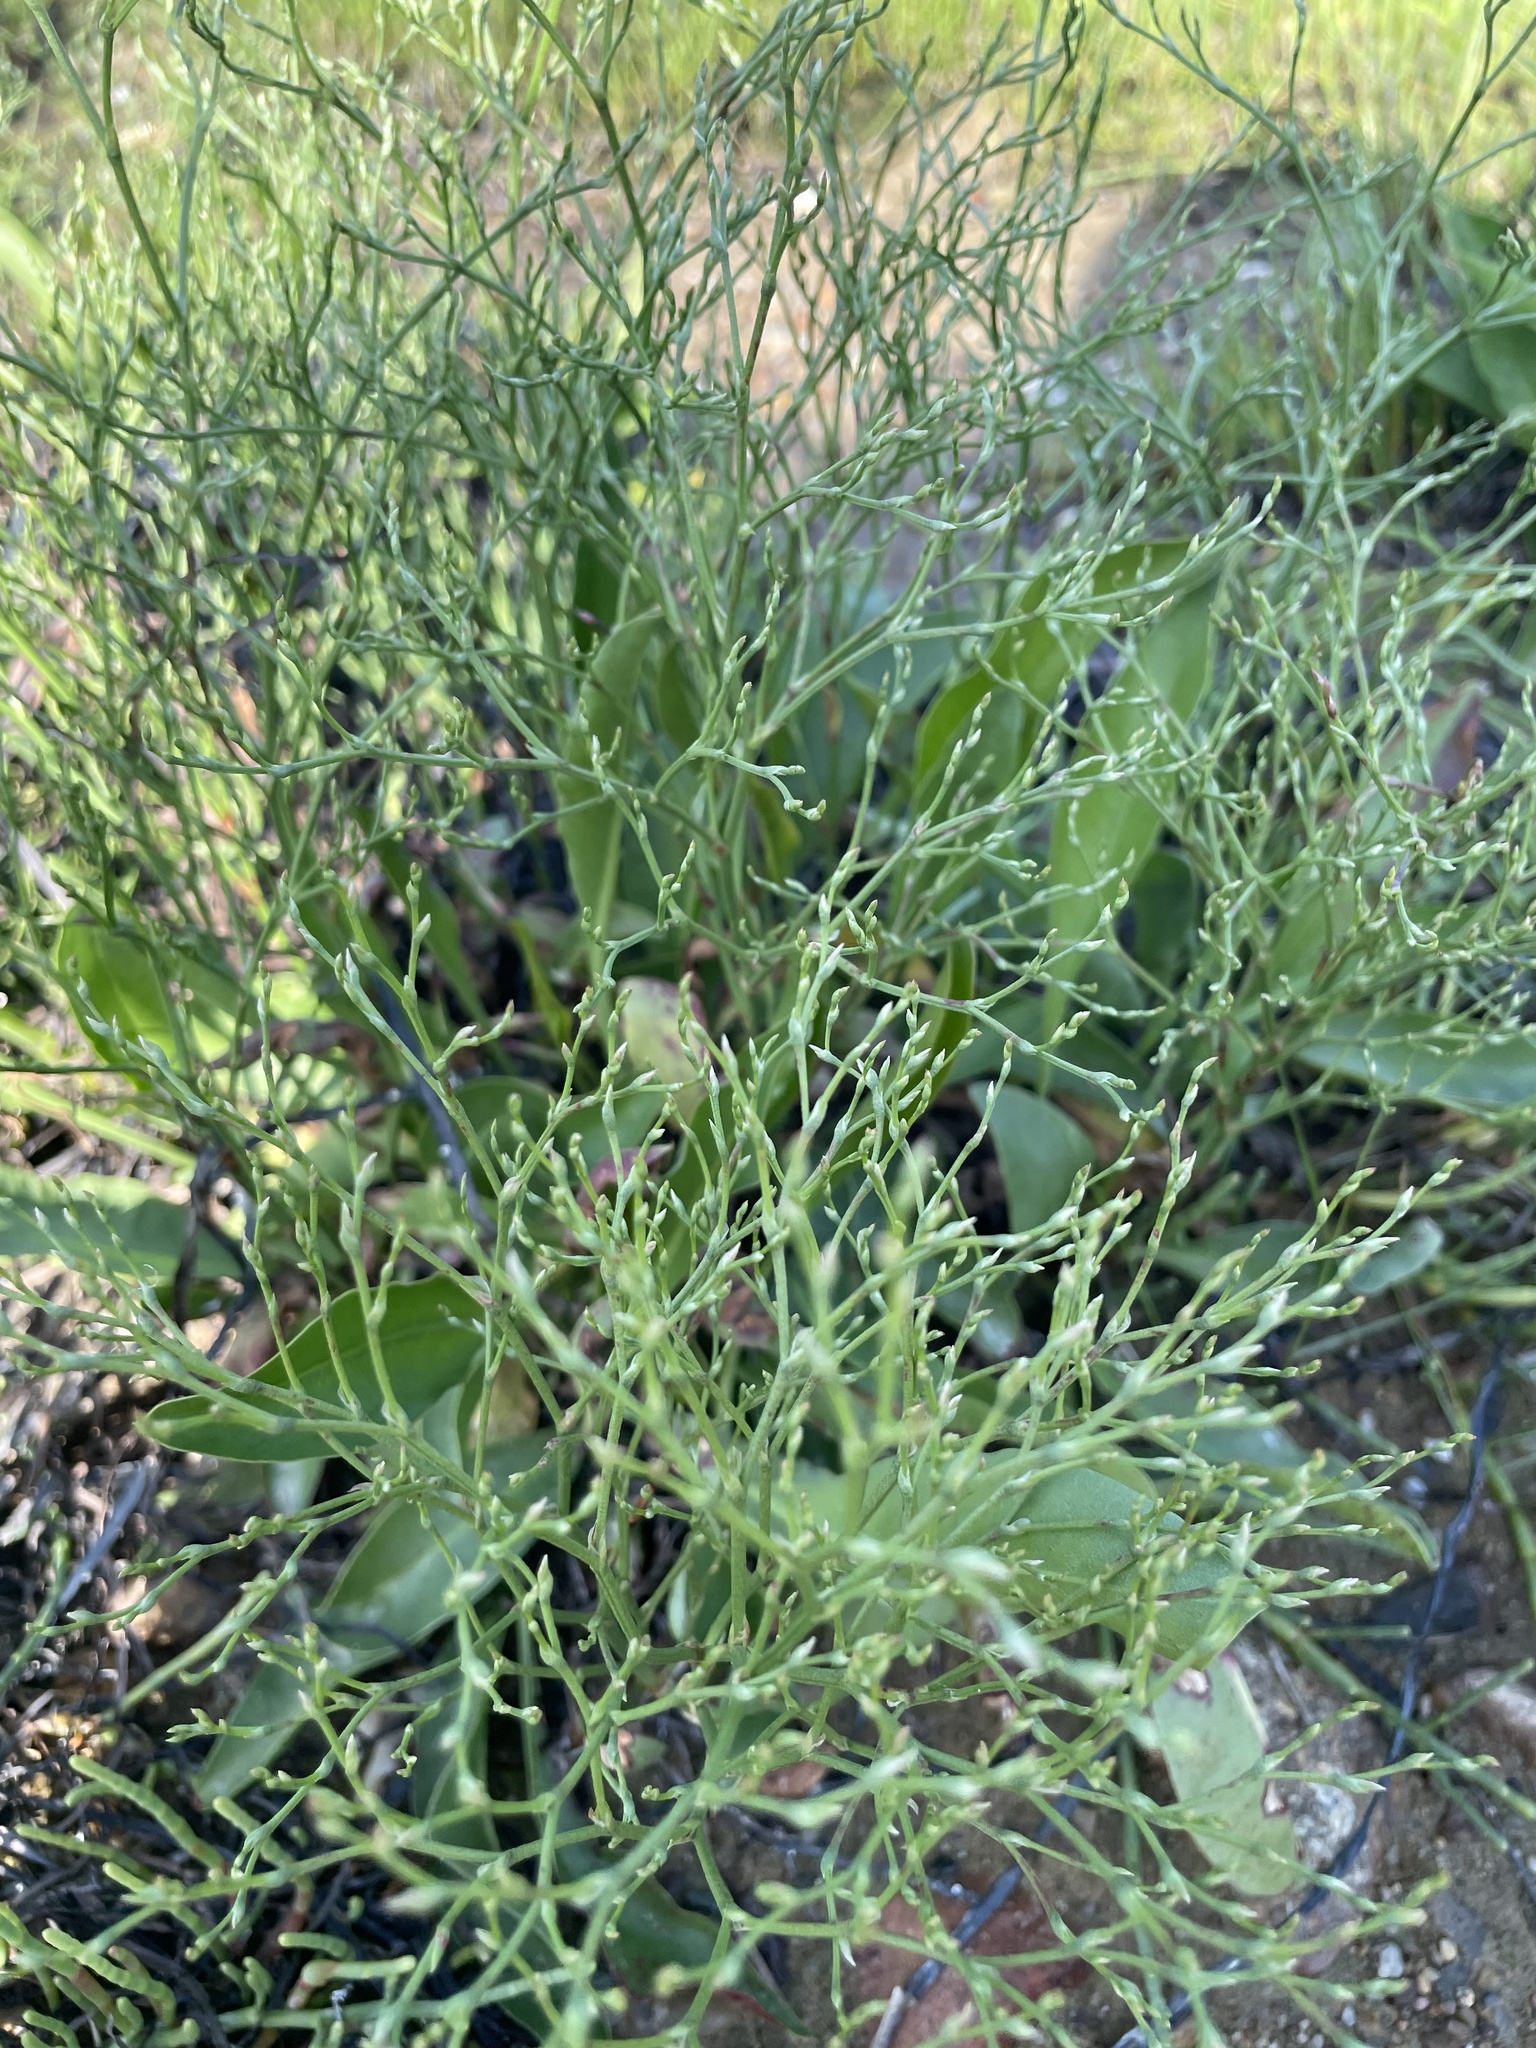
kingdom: Plantae
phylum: Tracheophyta
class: Magnoliopsida
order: Caryophyllales
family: Plumbaginaceae
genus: Limonium
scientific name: Limonium carolinianum
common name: Carolina sea lavender
